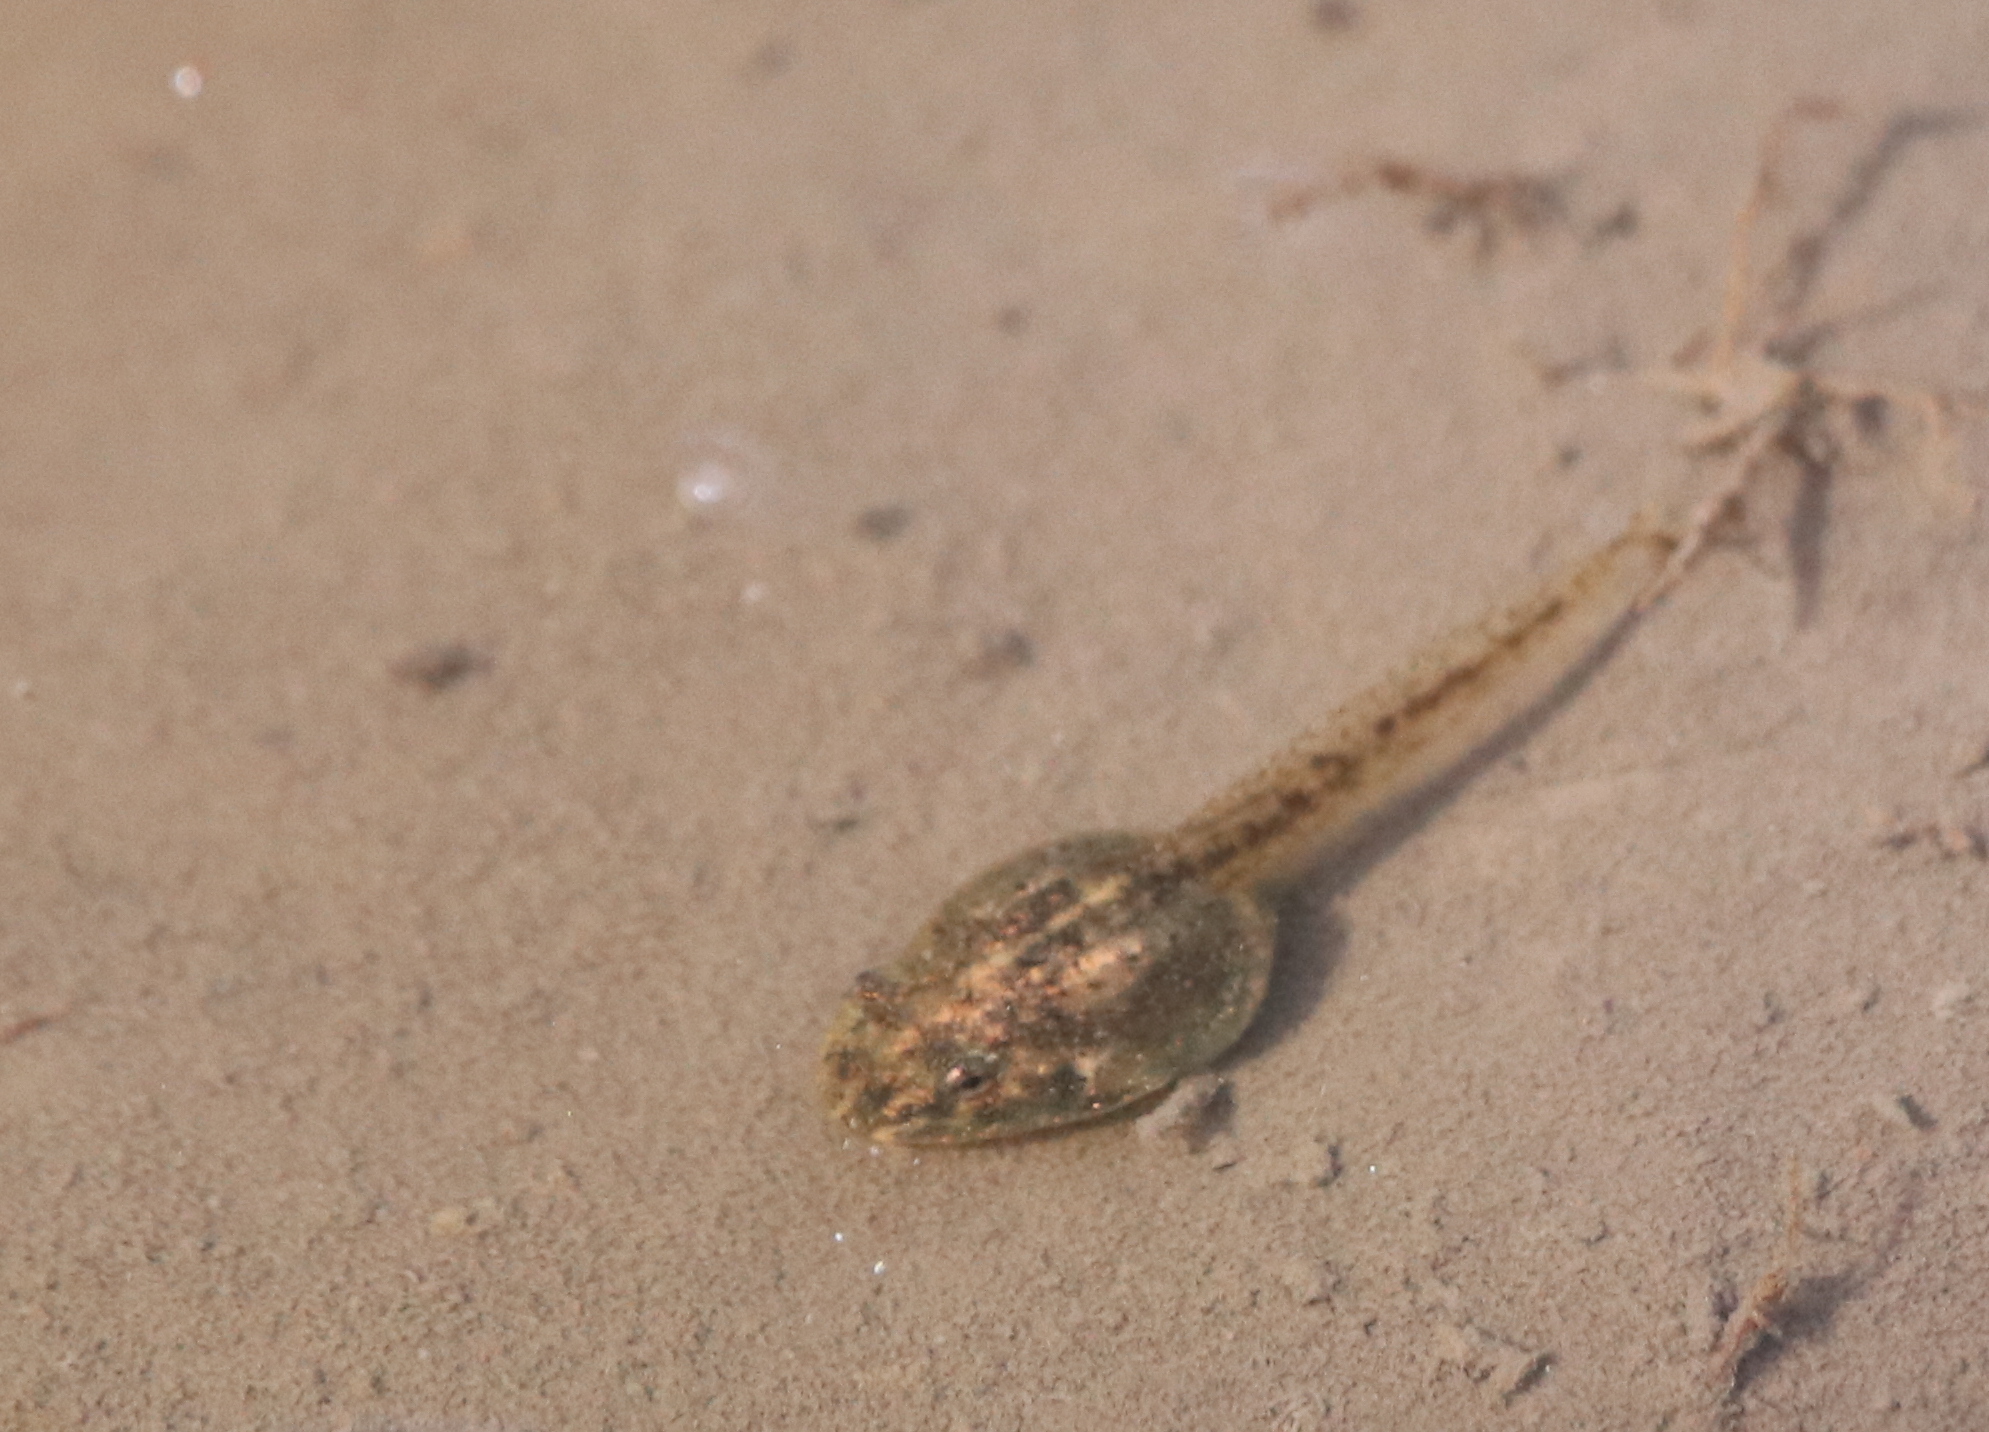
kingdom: Animalia
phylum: Chordata
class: Amphibia
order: Anura
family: Hylidae
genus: Pseudacris
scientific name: Pseudacris crucifer
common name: Spring peeper
